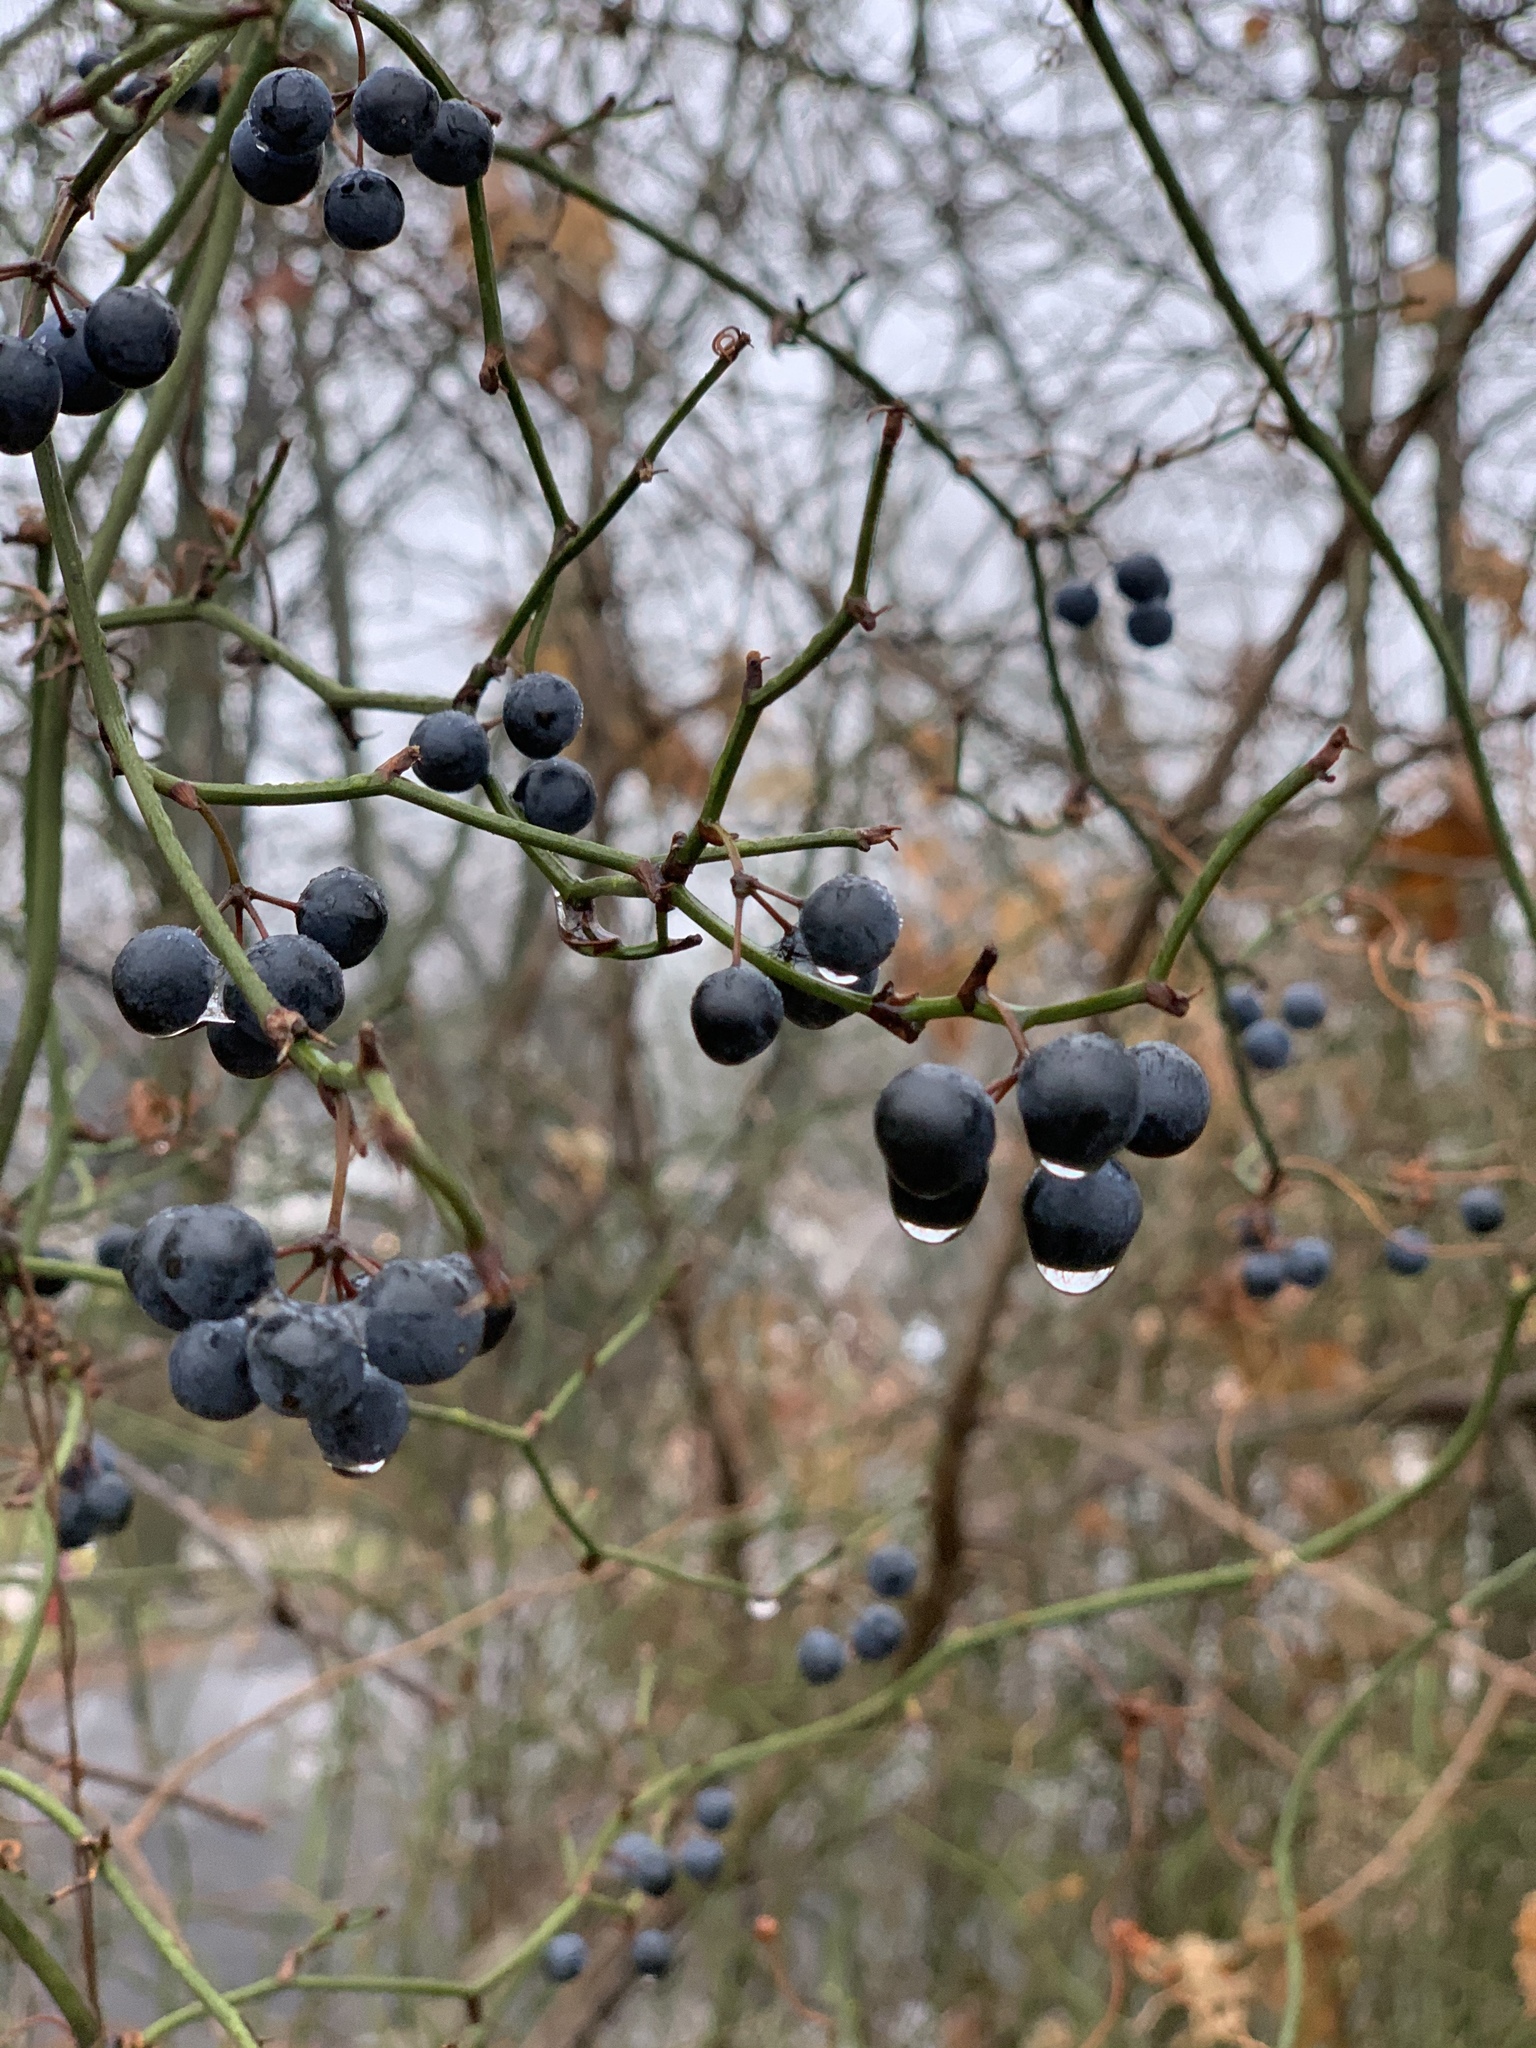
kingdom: Plantae
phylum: Tracheophyta
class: Liliopsida
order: Liliales
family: Smilacaceae
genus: Smilax
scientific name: Smilax rotundifolia
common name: Bullbriar
